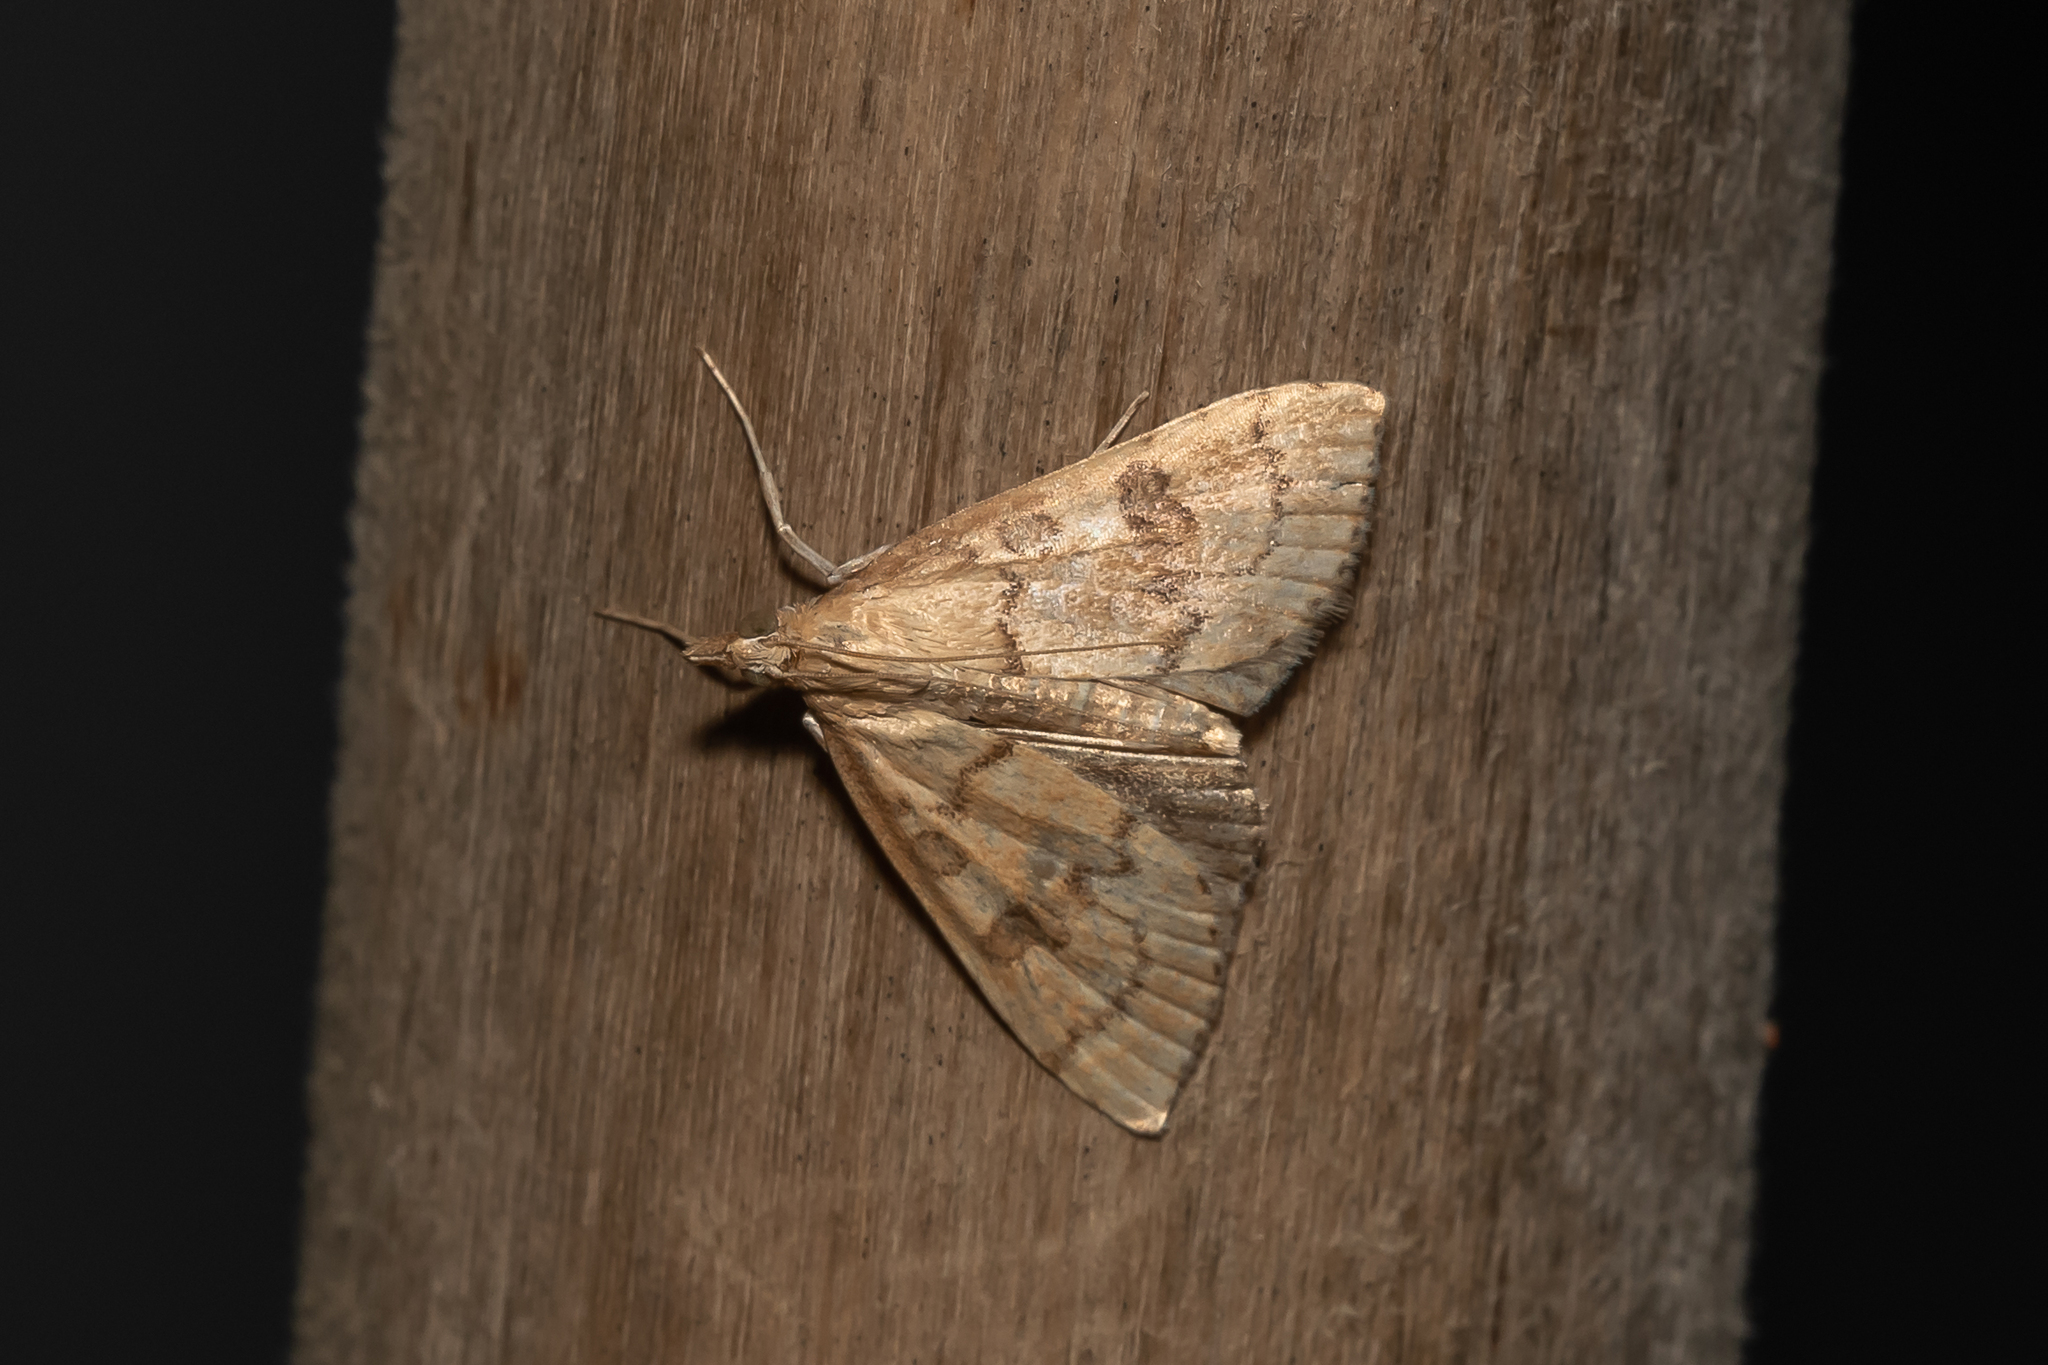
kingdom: Animalia
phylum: Arthropoda
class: Insecta
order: Lepidoptera
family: Crambidae
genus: Udea
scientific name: Udea fulvalis
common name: Fulvous pearl
